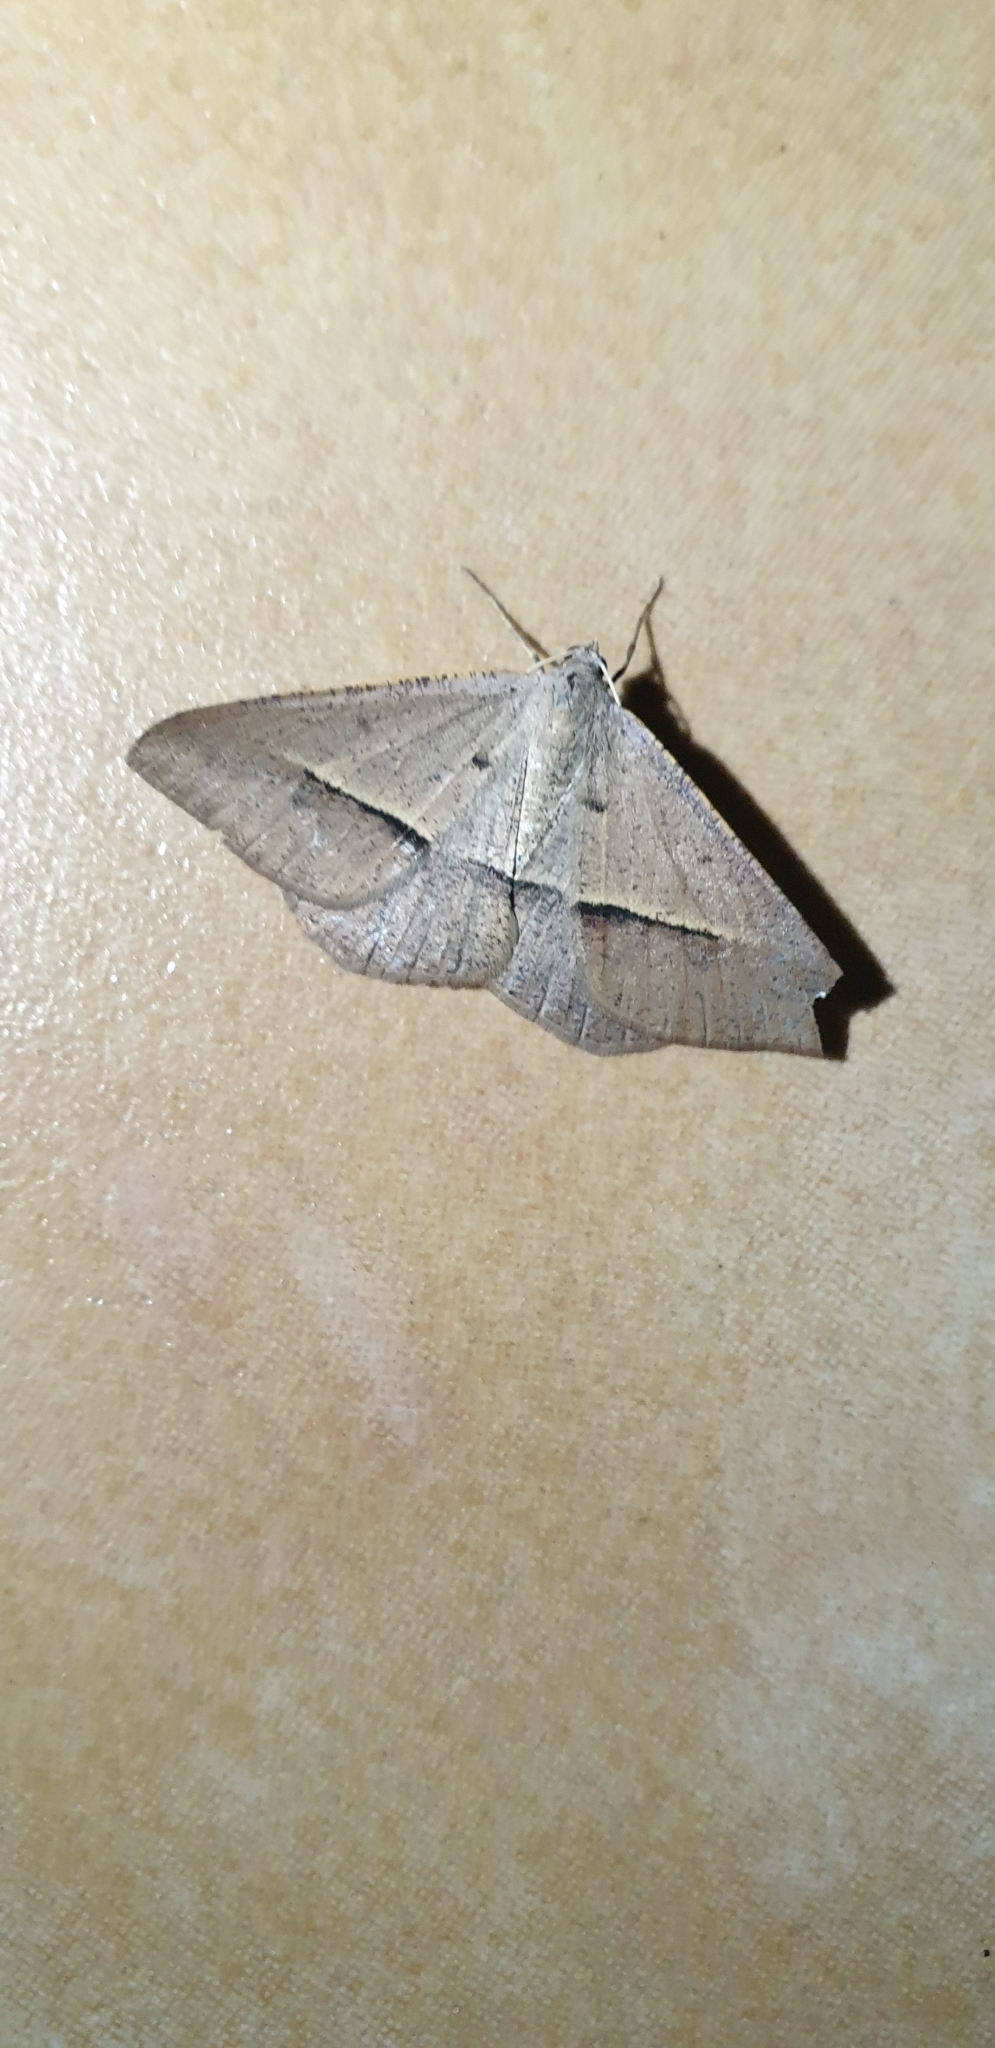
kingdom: Animalia
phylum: Arthropoda
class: Insecta
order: Lepidoptera
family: Geometridae
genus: Isturgia
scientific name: Isturgia
